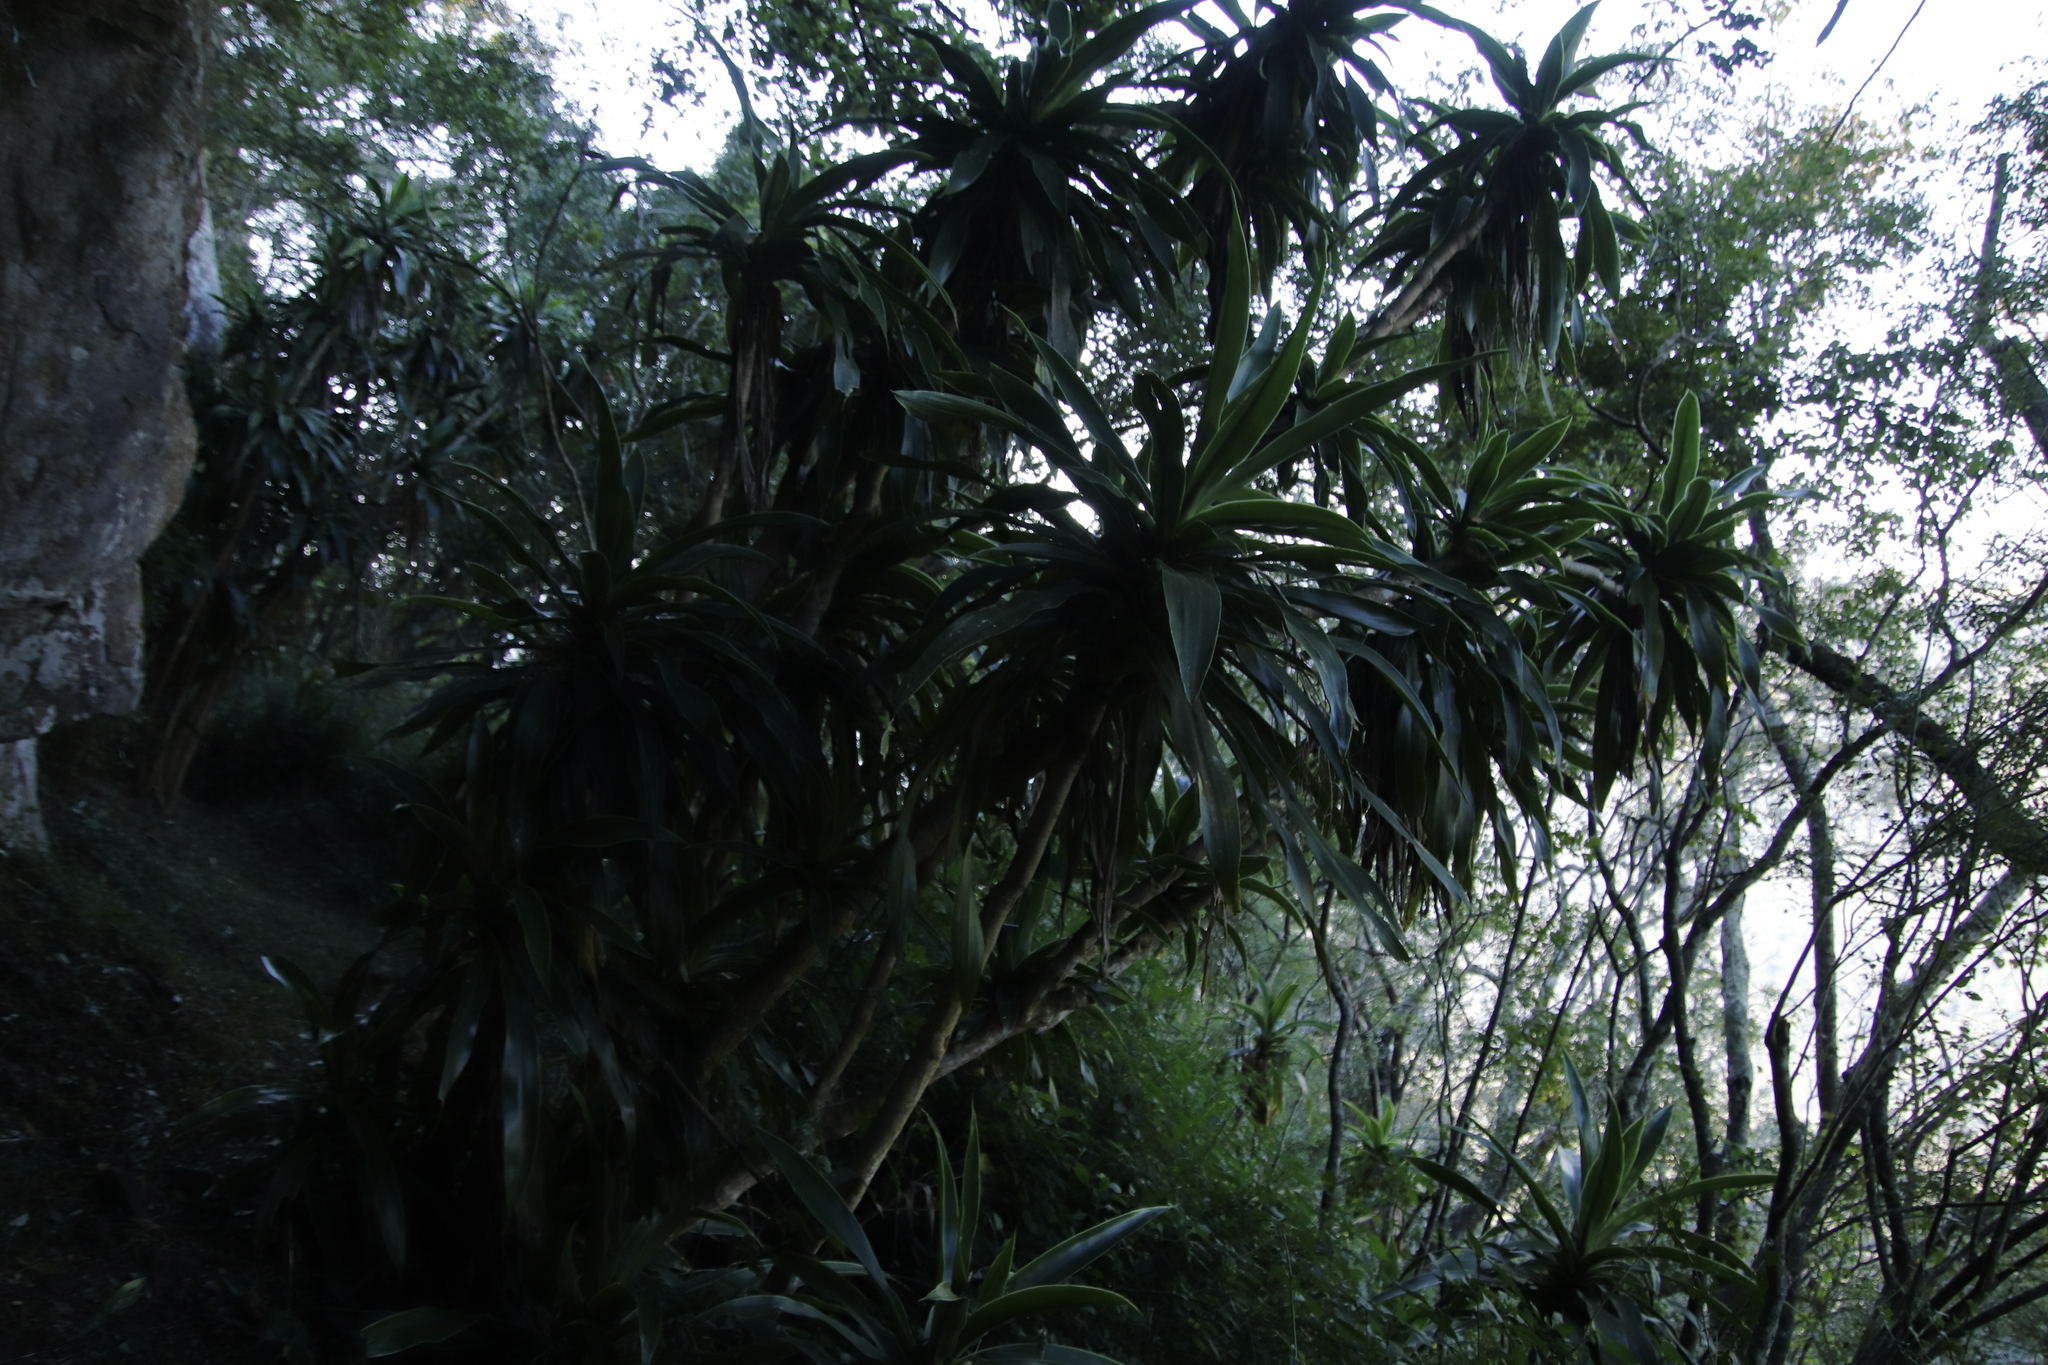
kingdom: Plantae
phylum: Tracheophyta
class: Liliopsida
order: Asparagales
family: Asparagaceae
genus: Dracaena
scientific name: Dracaena aletriformis
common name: Large-leaved dragon tree
